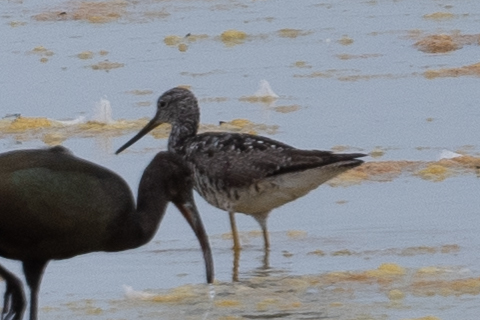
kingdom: Animalia
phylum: Chordata
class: Aves
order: Charadriiformes
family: Scolopacidae
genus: Tringa
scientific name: Tringa melanoleuca
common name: Greater yellowlegs
